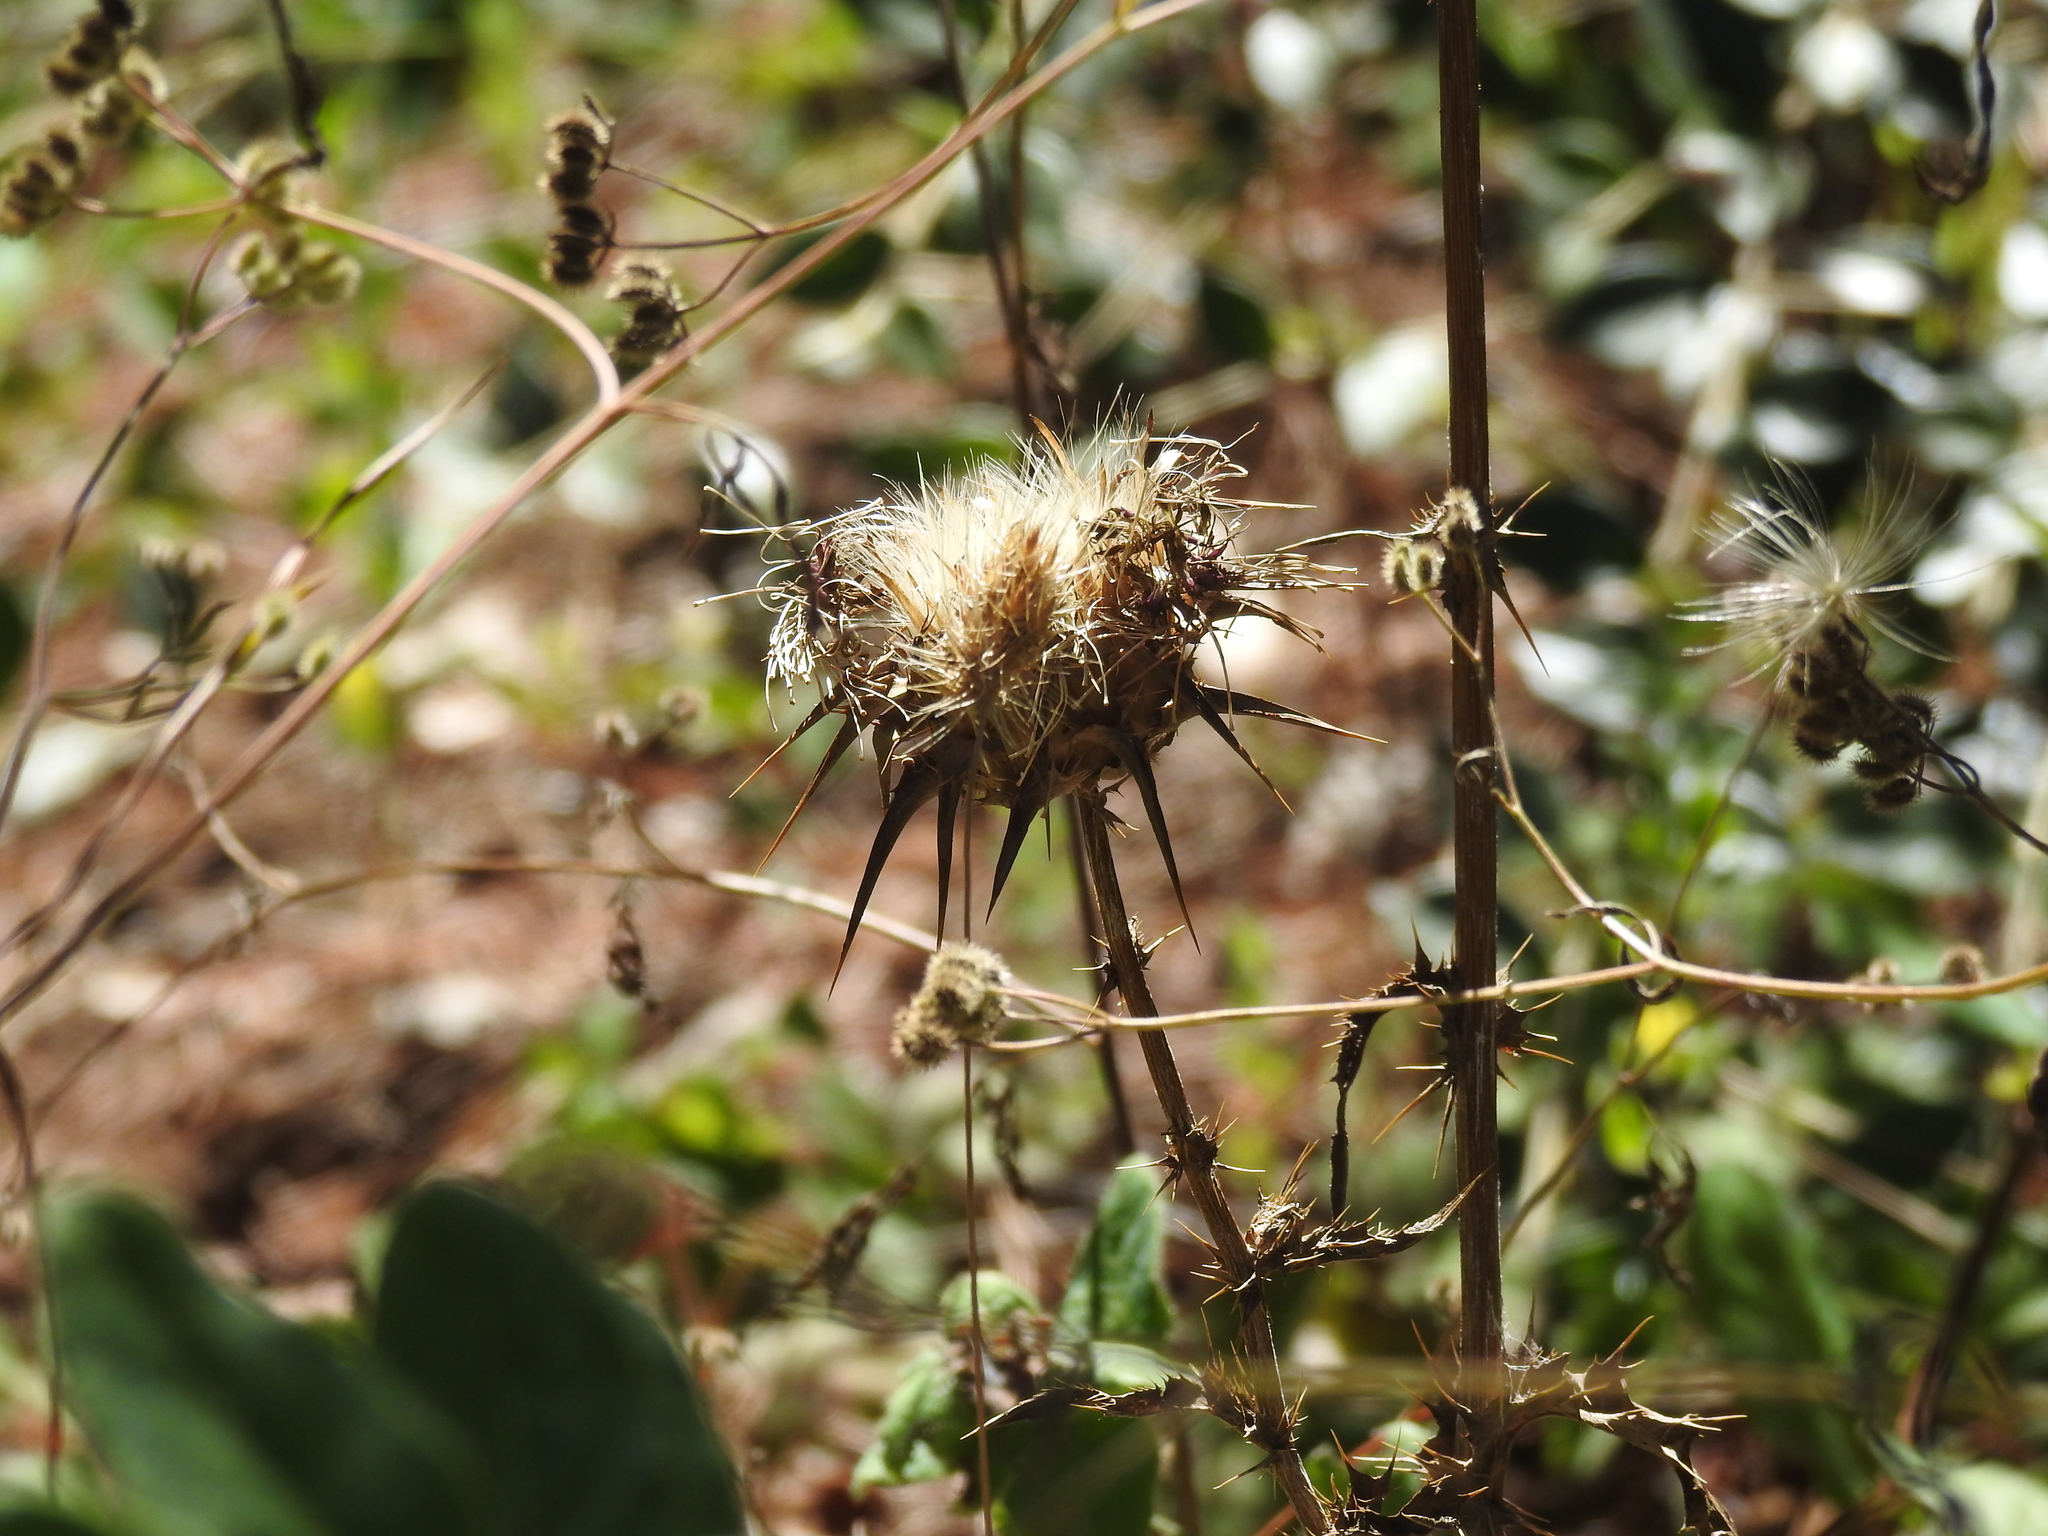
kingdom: Plantae
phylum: Tracheophyta
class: Magnoliopsida
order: Asterales
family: Asteraceae
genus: Silybum
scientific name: Silybum marianum
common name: Milk thistle
